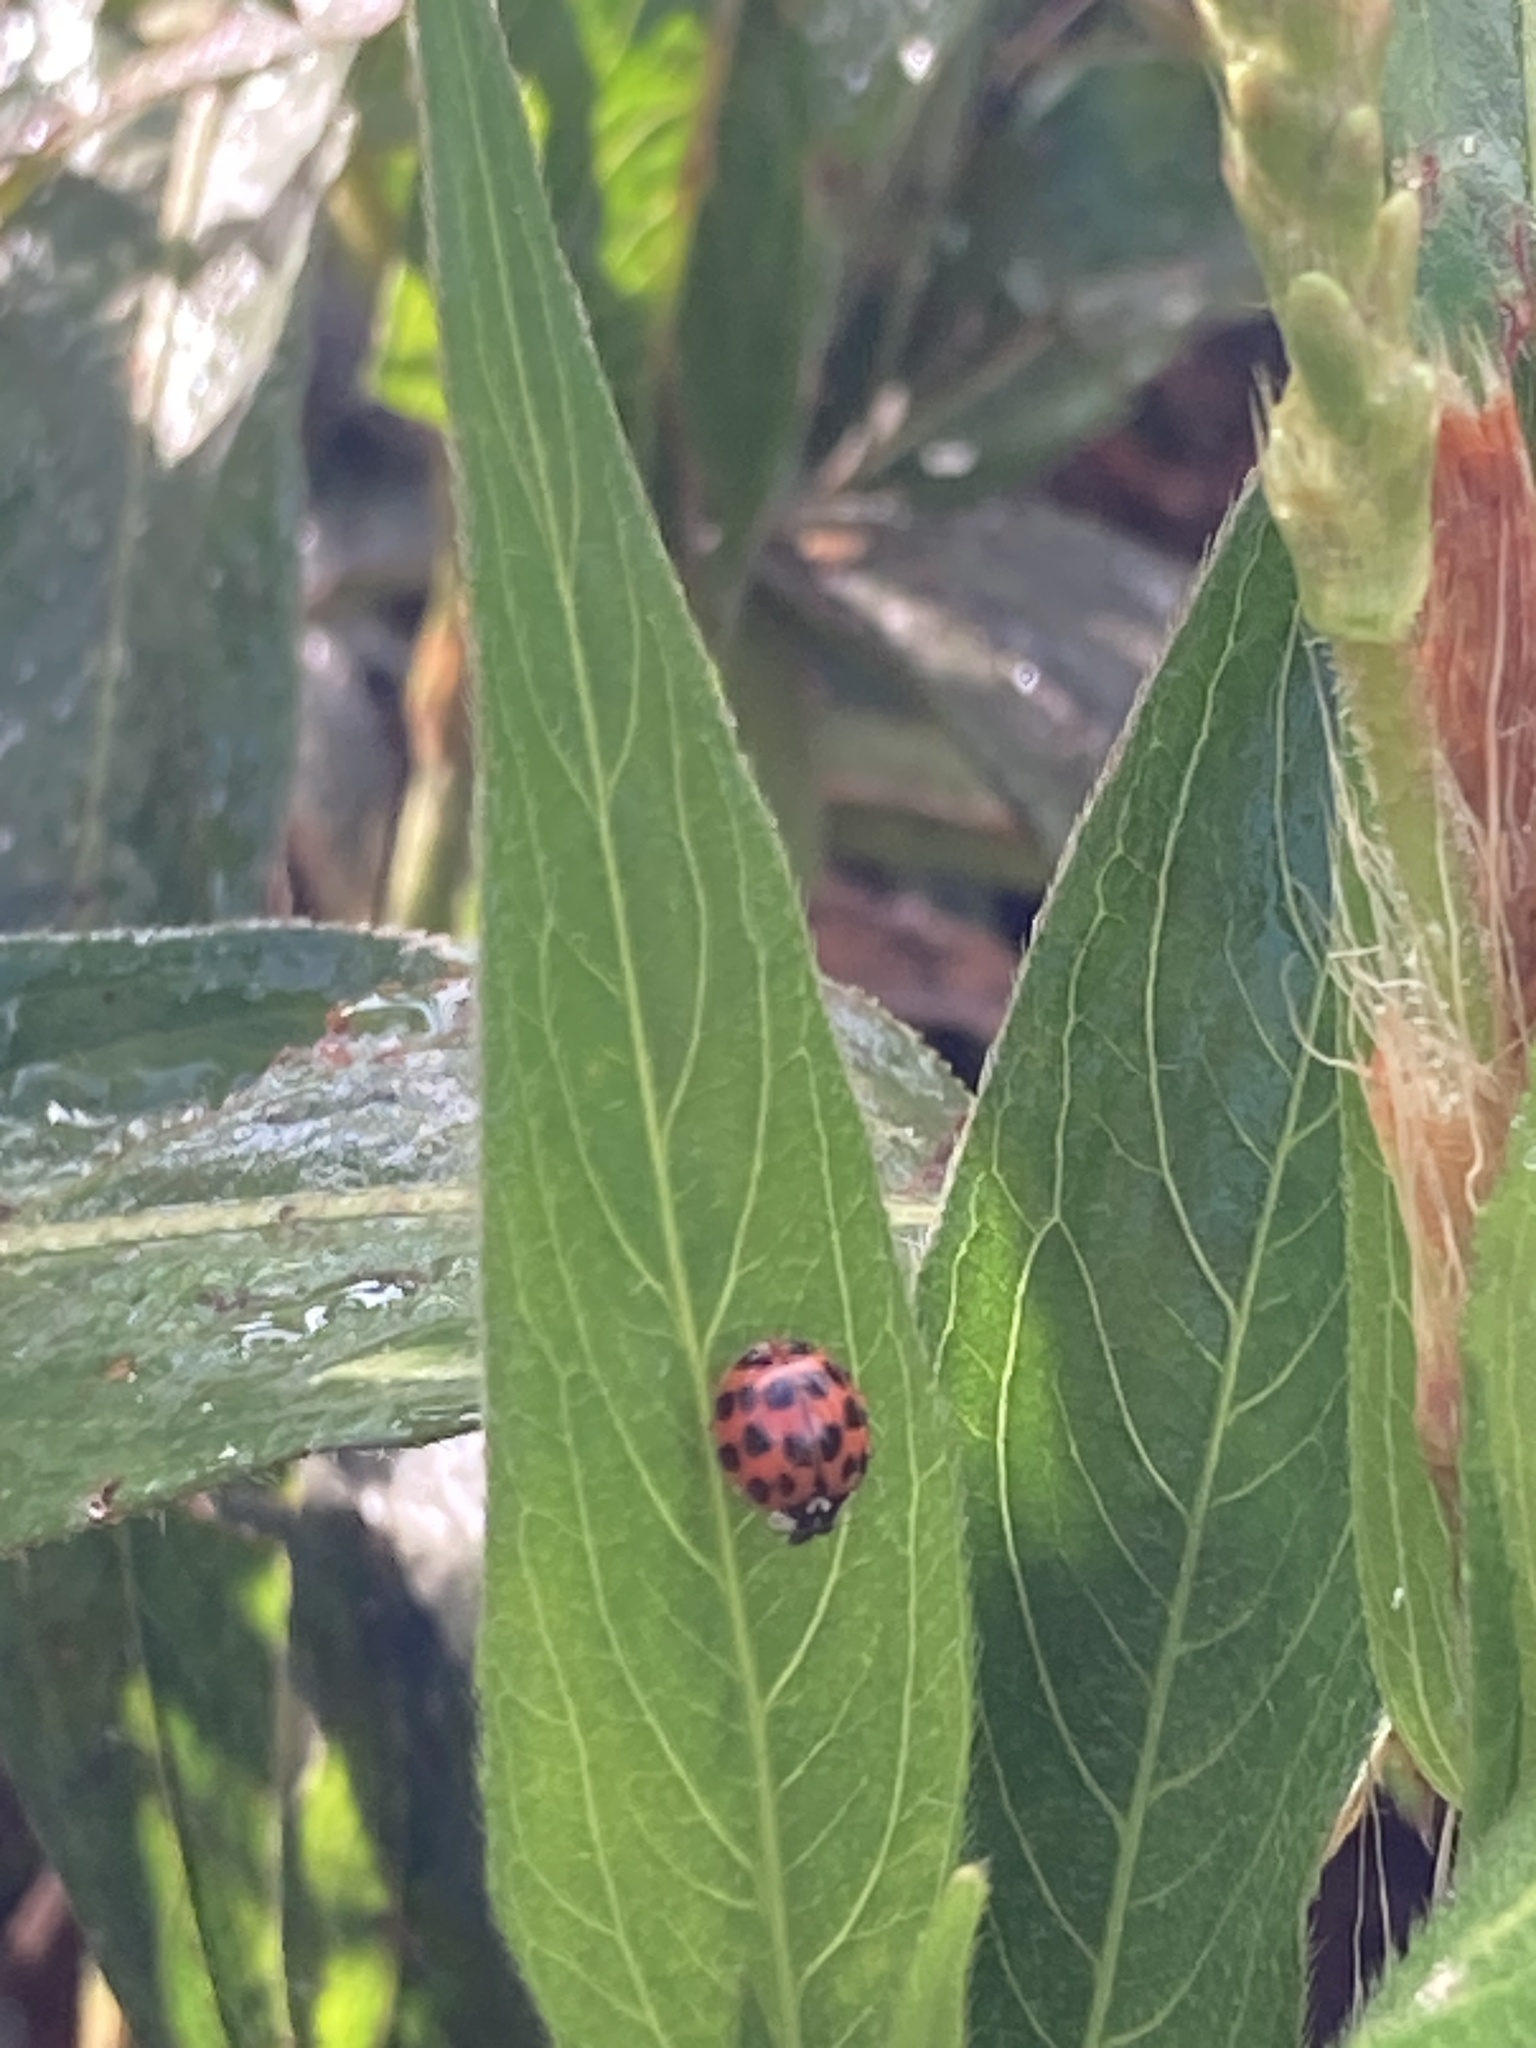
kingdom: Animalia
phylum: Arthropoda
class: Insecta
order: Coleoptera
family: Coccinellidae
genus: Harmonia
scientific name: Harmonia axyridis
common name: Harlequin ladybird
